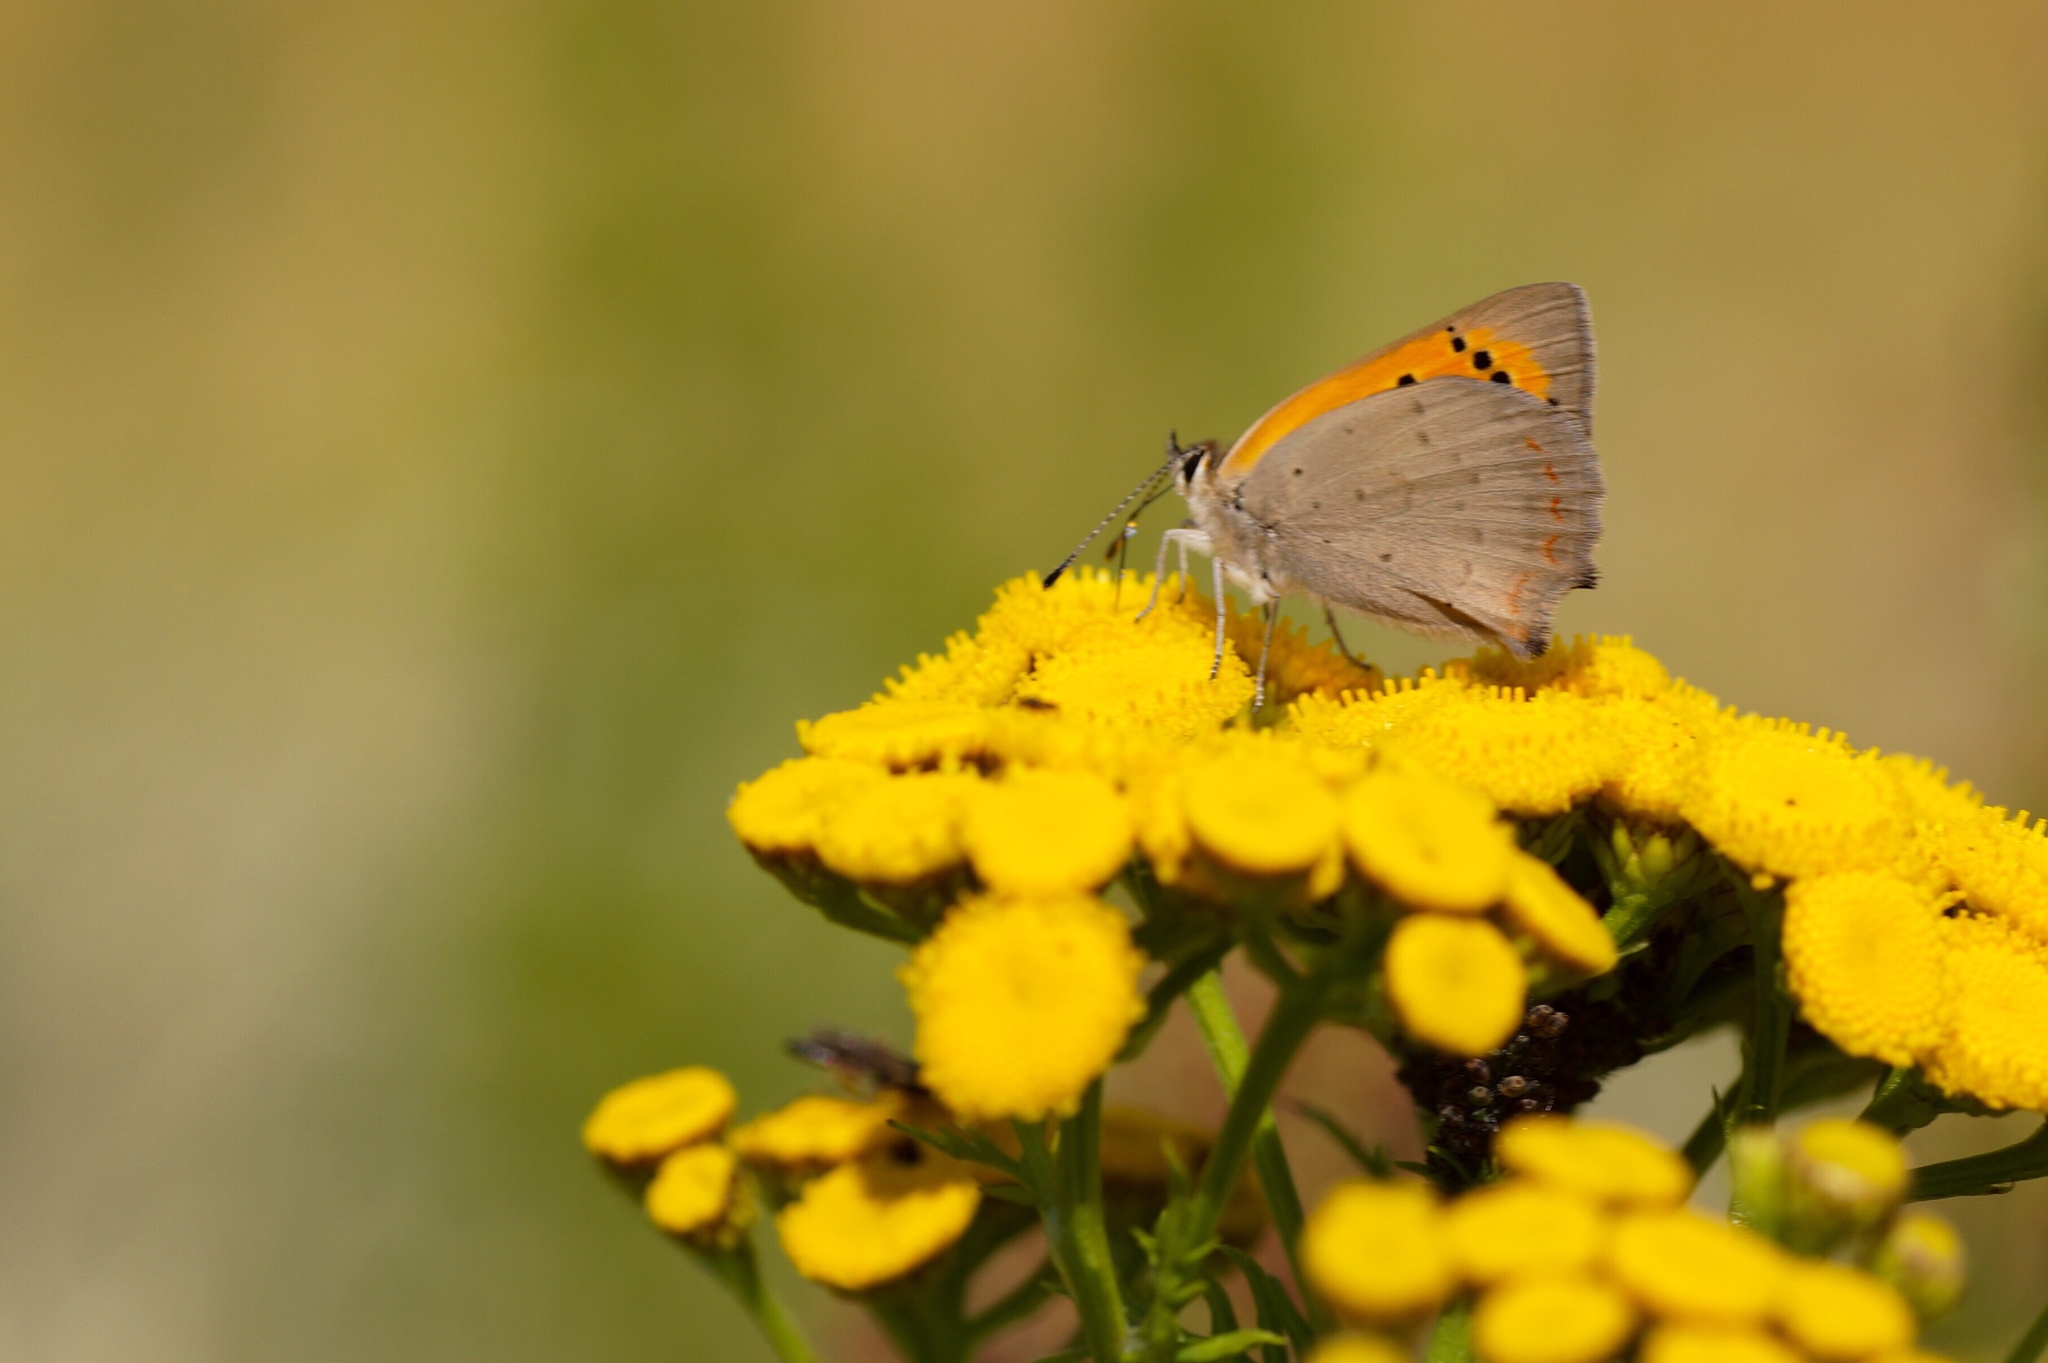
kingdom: Animalia
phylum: Arthropoda
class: Insecta
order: Lepidoptera
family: Lycaenidae
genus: Lycaena
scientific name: Lycaena phlaeas
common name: Small copper
